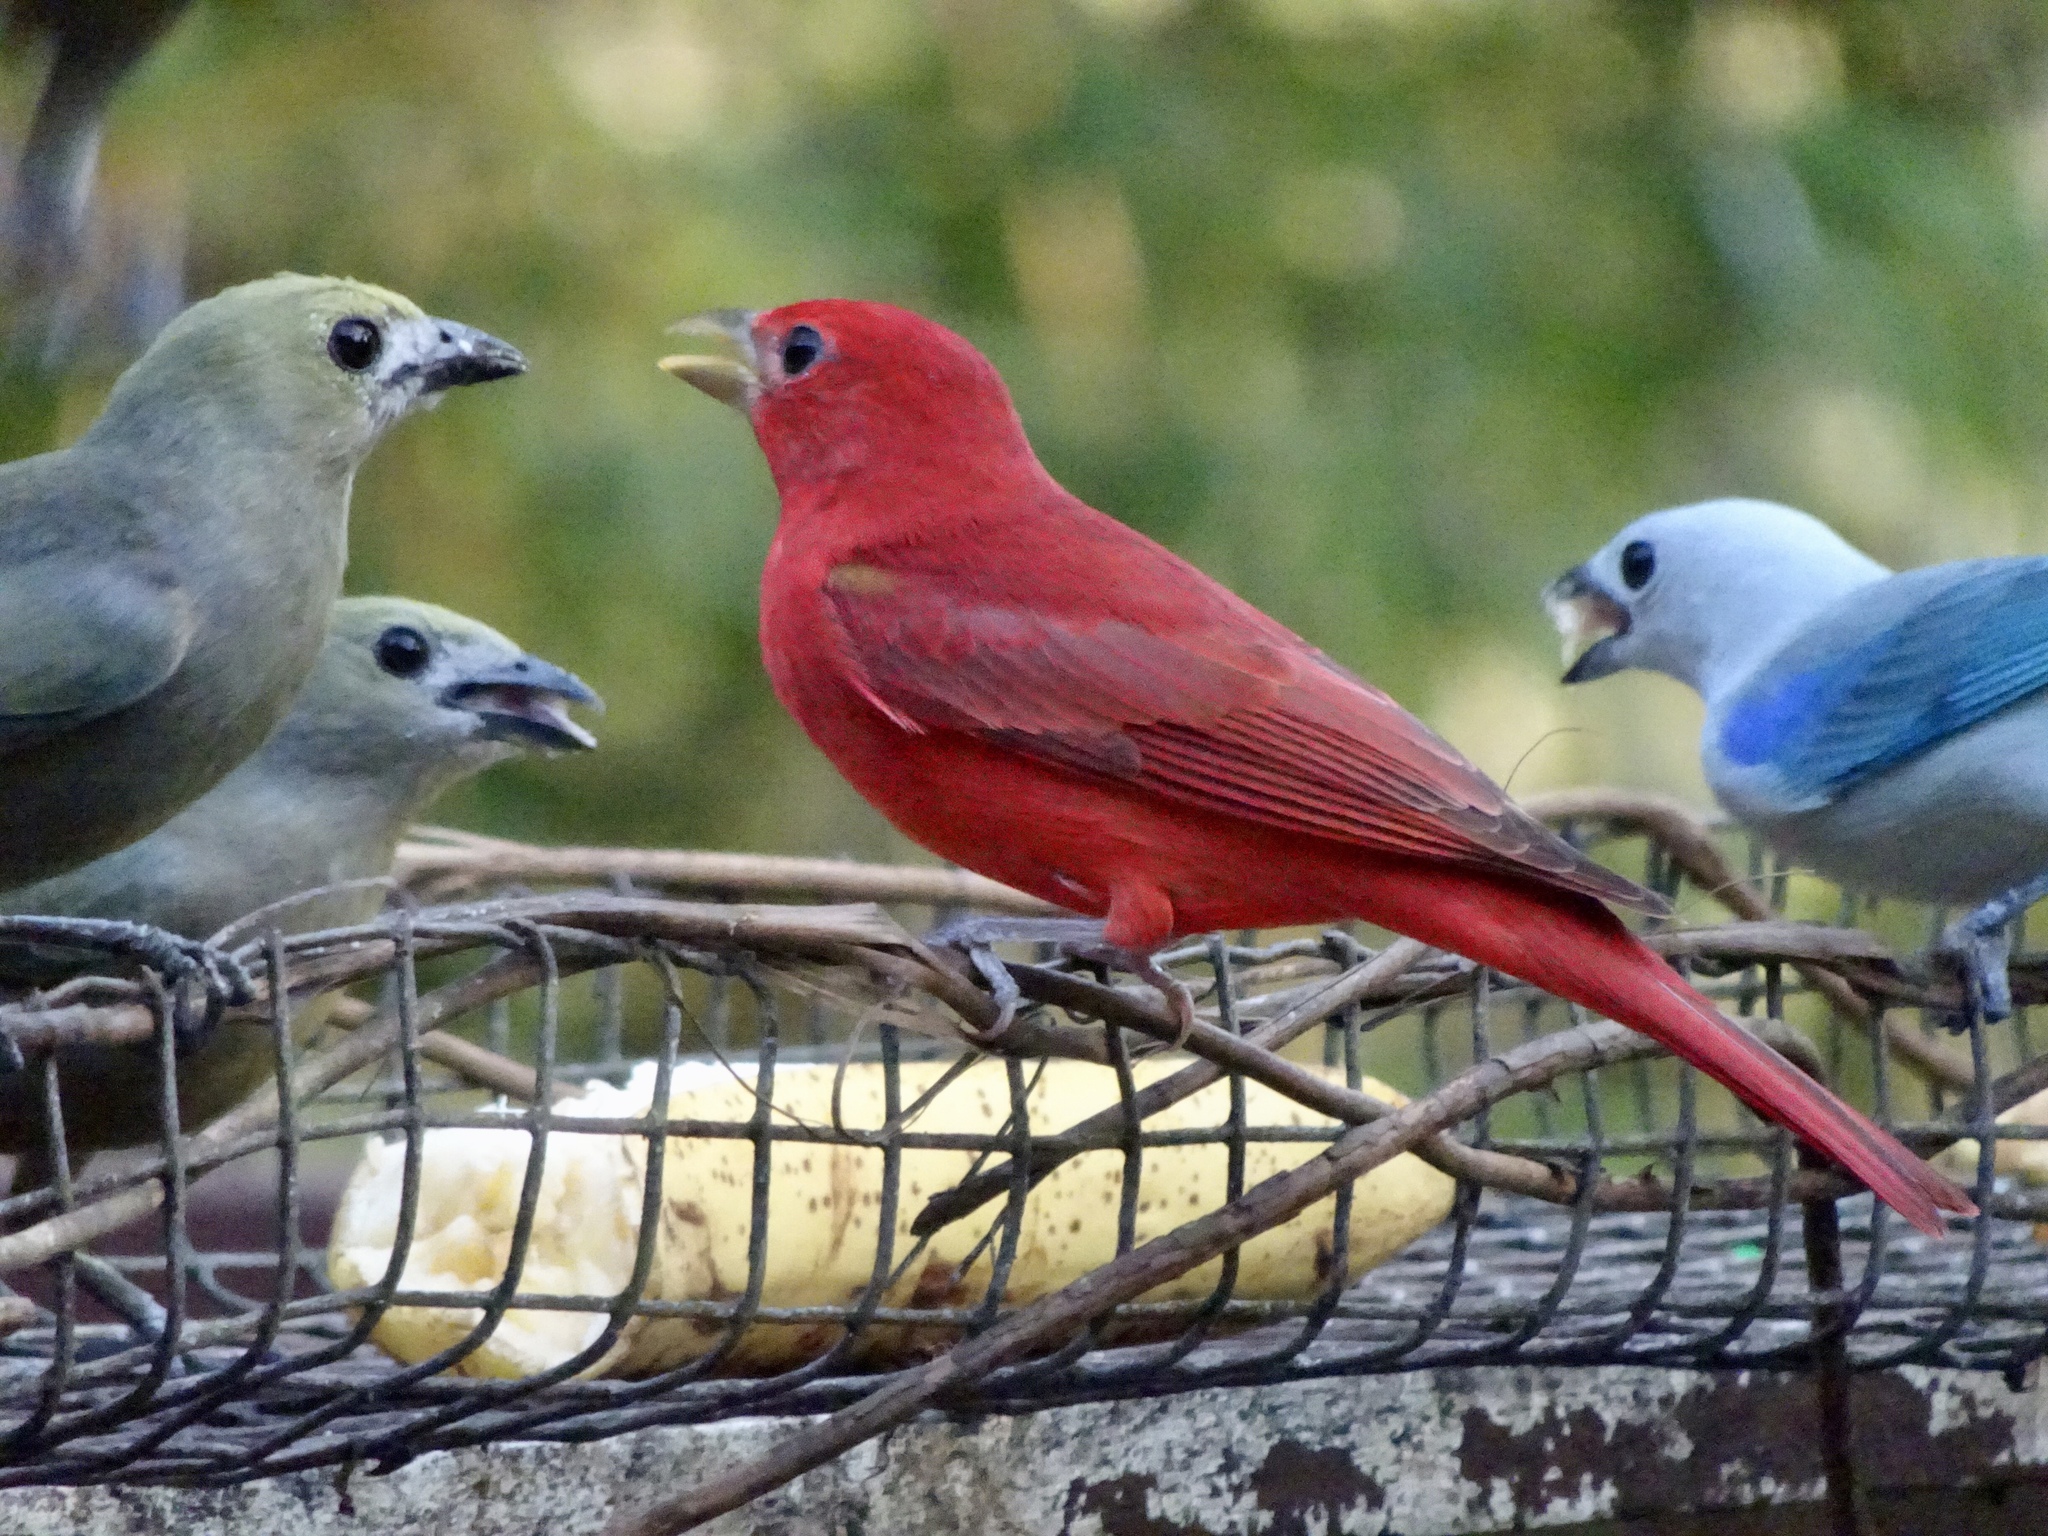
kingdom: Animalia
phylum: Chordata
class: Aves
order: Passeriformes
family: Cardinalidae
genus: Piranga
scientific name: Piranga rubra
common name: Summer tanager
